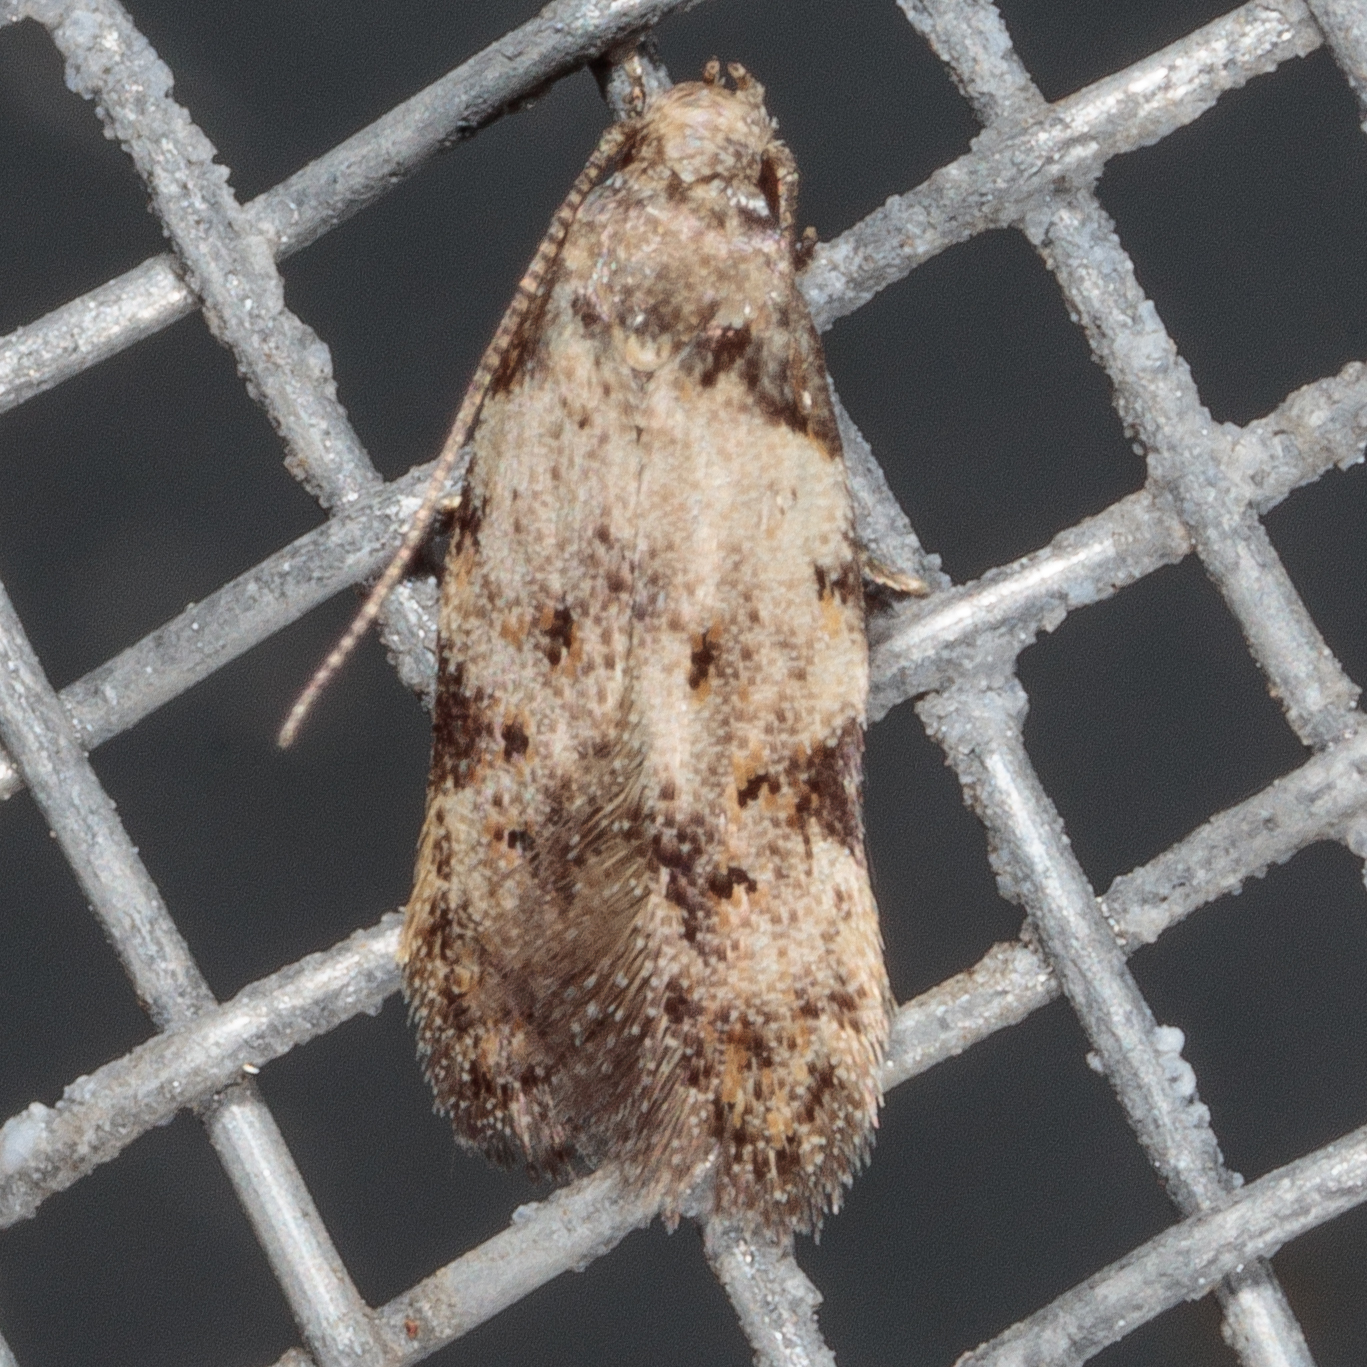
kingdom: Animalia
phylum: Arthropoda
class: Insecta
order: Lepidoptera
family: Autostichidae
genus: Taygete
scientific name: Taygete attributella
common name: Triangle-marked twirler moth
